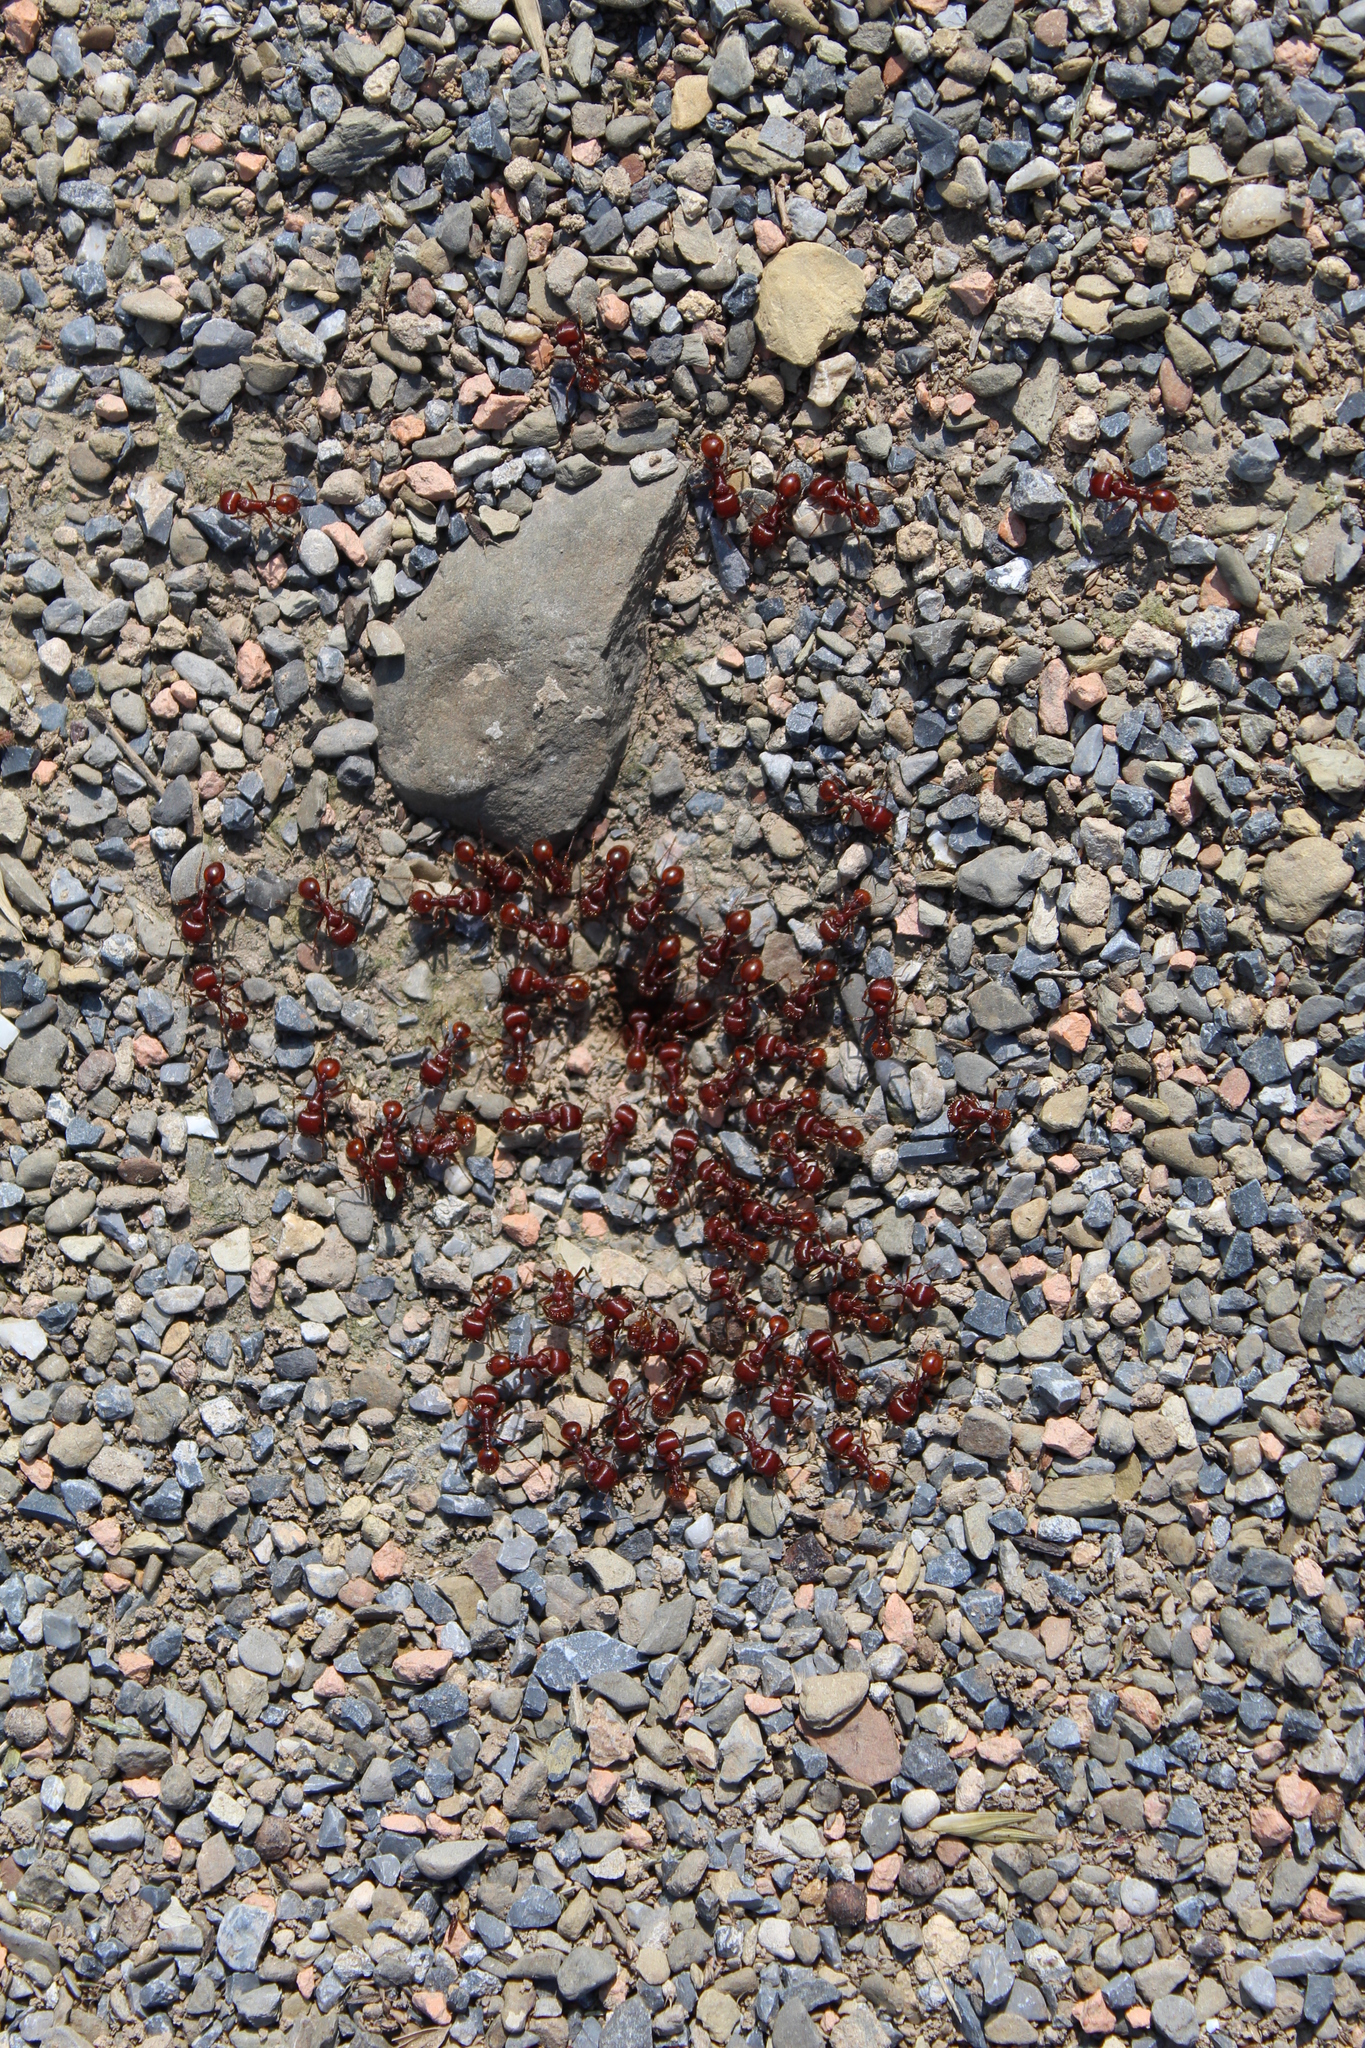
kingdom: Animalia
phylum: Arthropoda
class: Insecta
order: Hymenoptera
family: Formicidae
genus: Pogonomyrmex
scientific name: Pogonomyrmex barbatus
